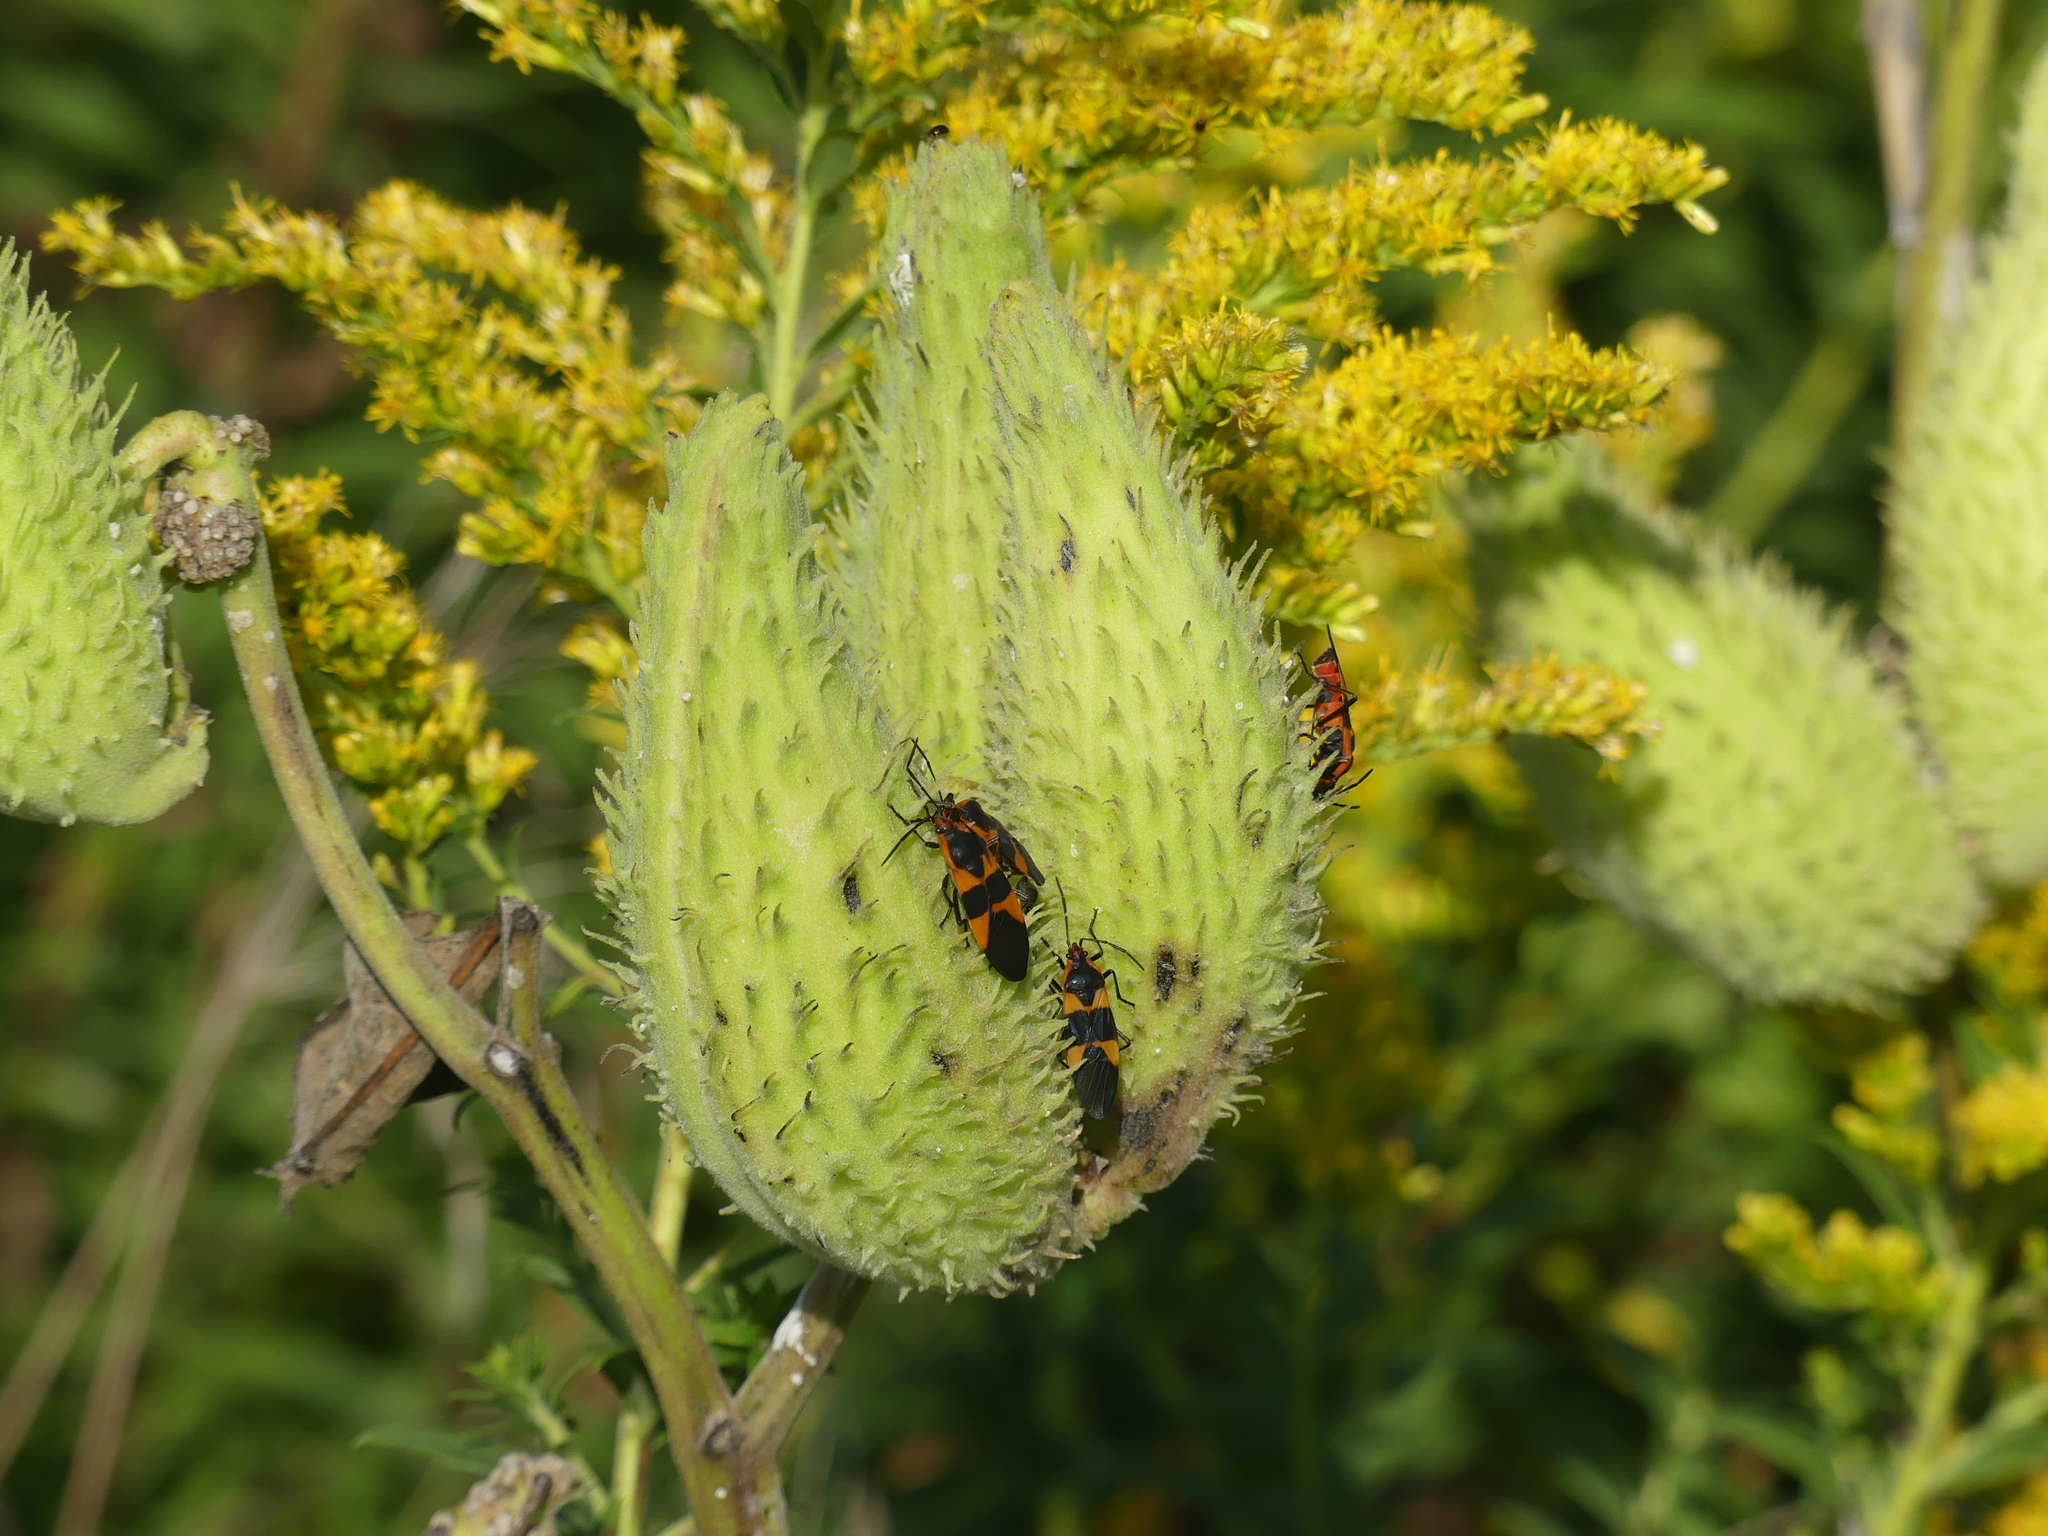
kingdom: Plantae
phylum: Tracheophyta
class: Magnoliopsida
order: Gentianales
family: Apocynaceae
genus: Asclepias
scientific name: Asclepias syriaca
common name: Common milkweed
